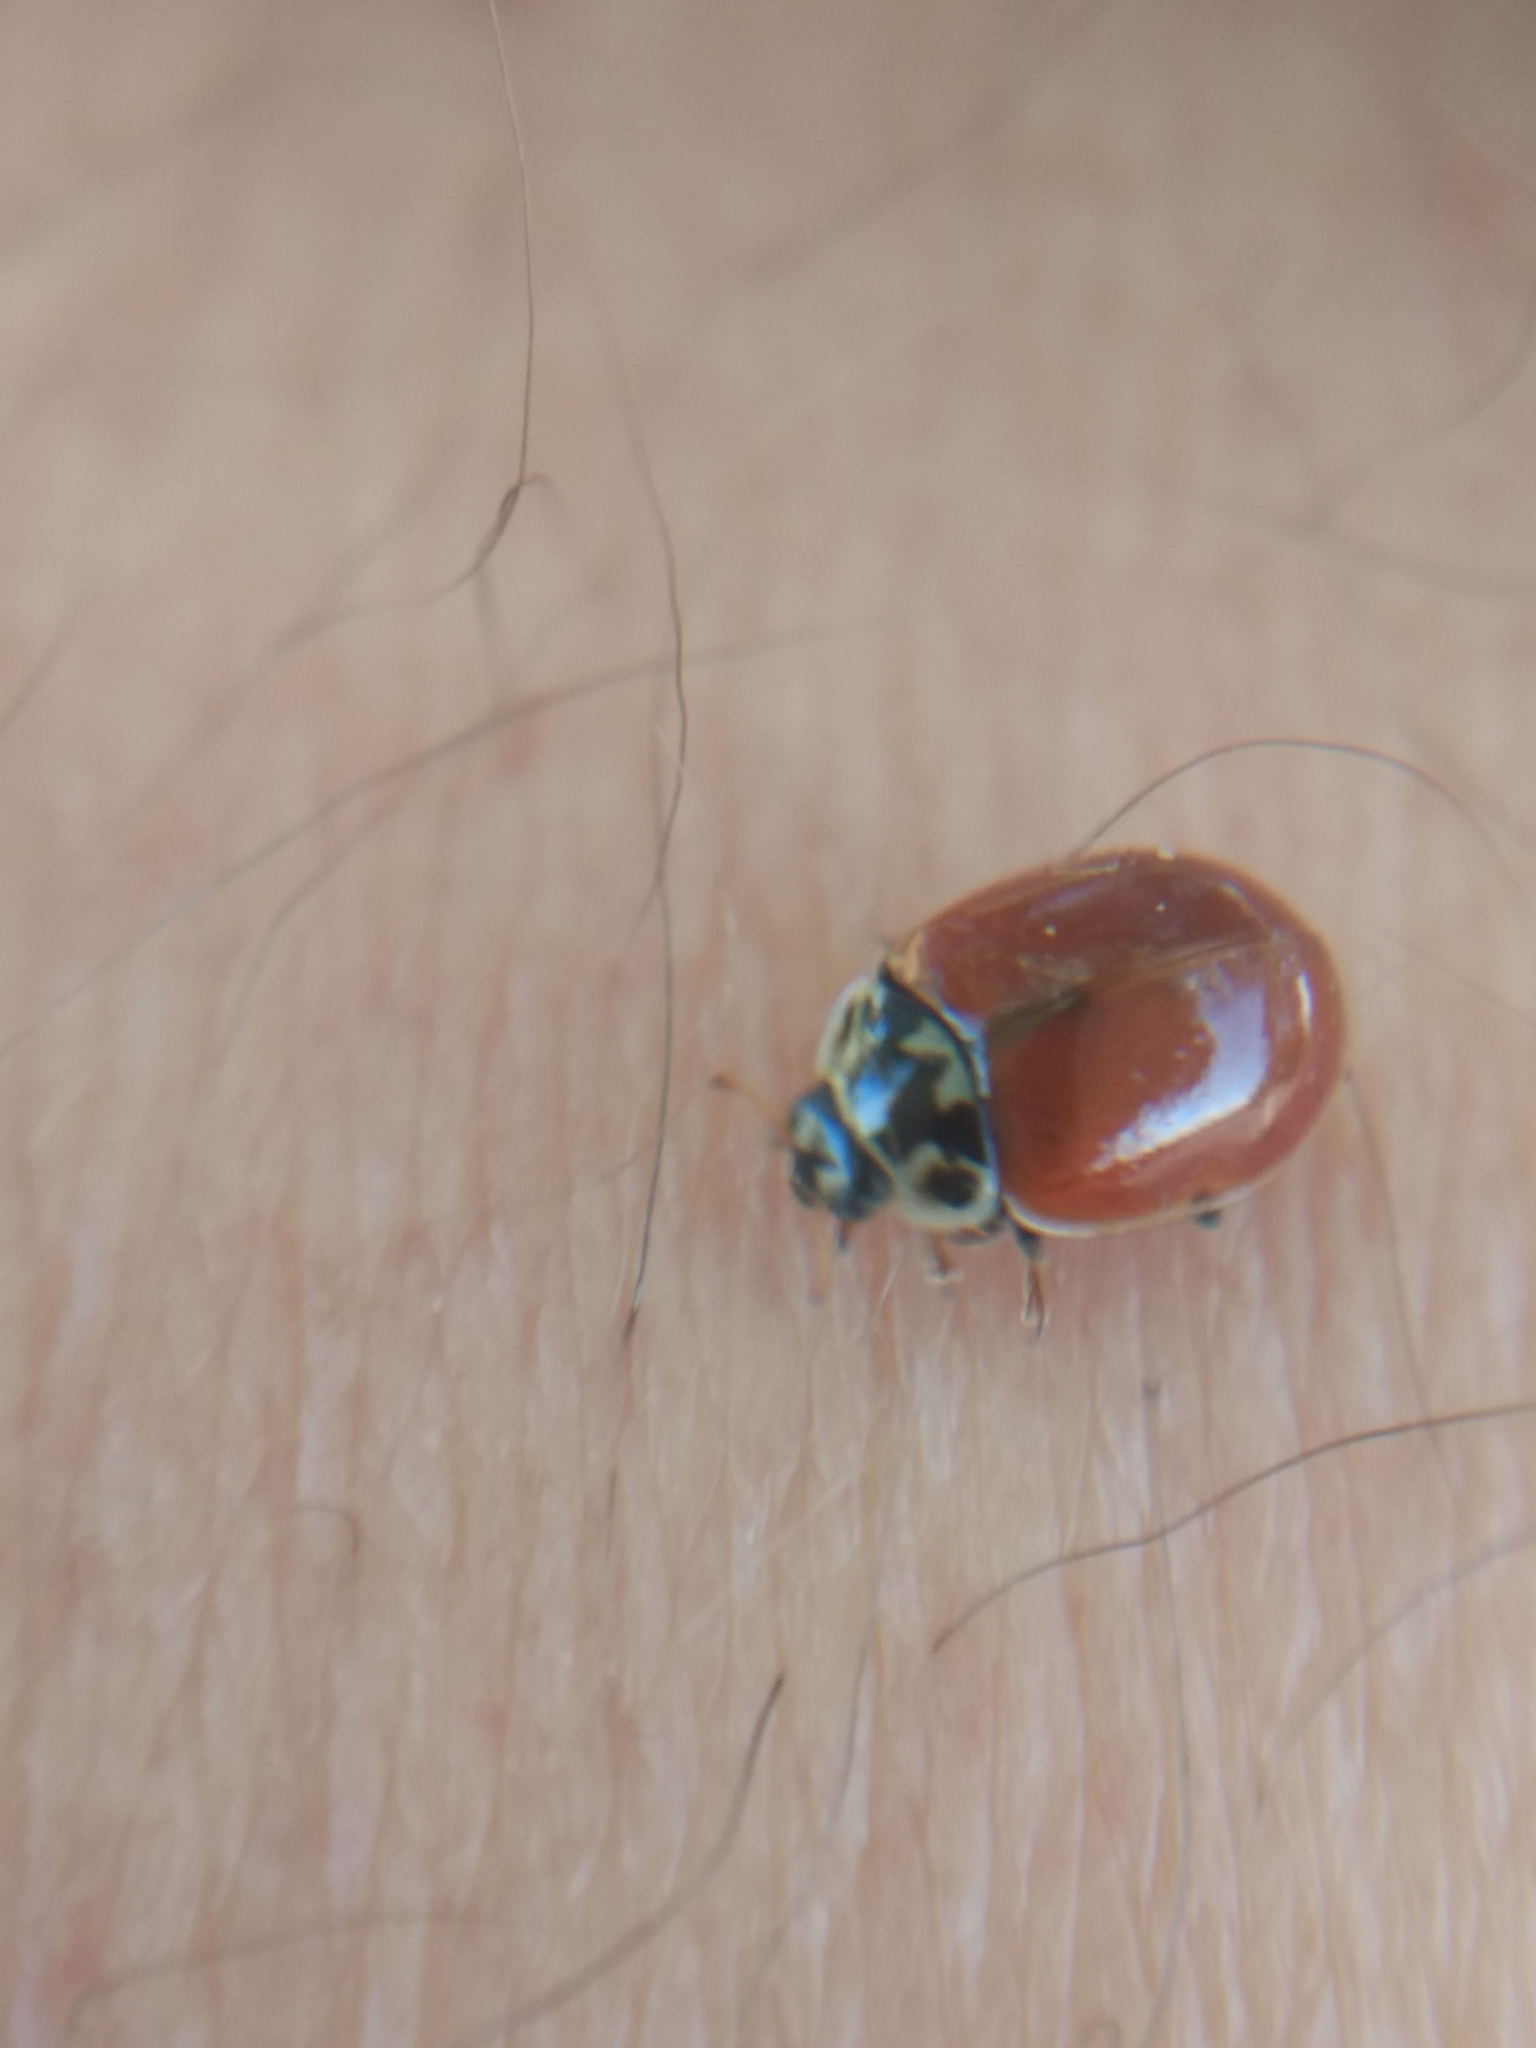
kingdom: Animalia
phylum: Arthropoda
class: Insecta
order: Coleoptera
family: Coccinellidae
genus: Adalia
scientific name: Adalia bipunctata
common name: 2-spot ladybird
